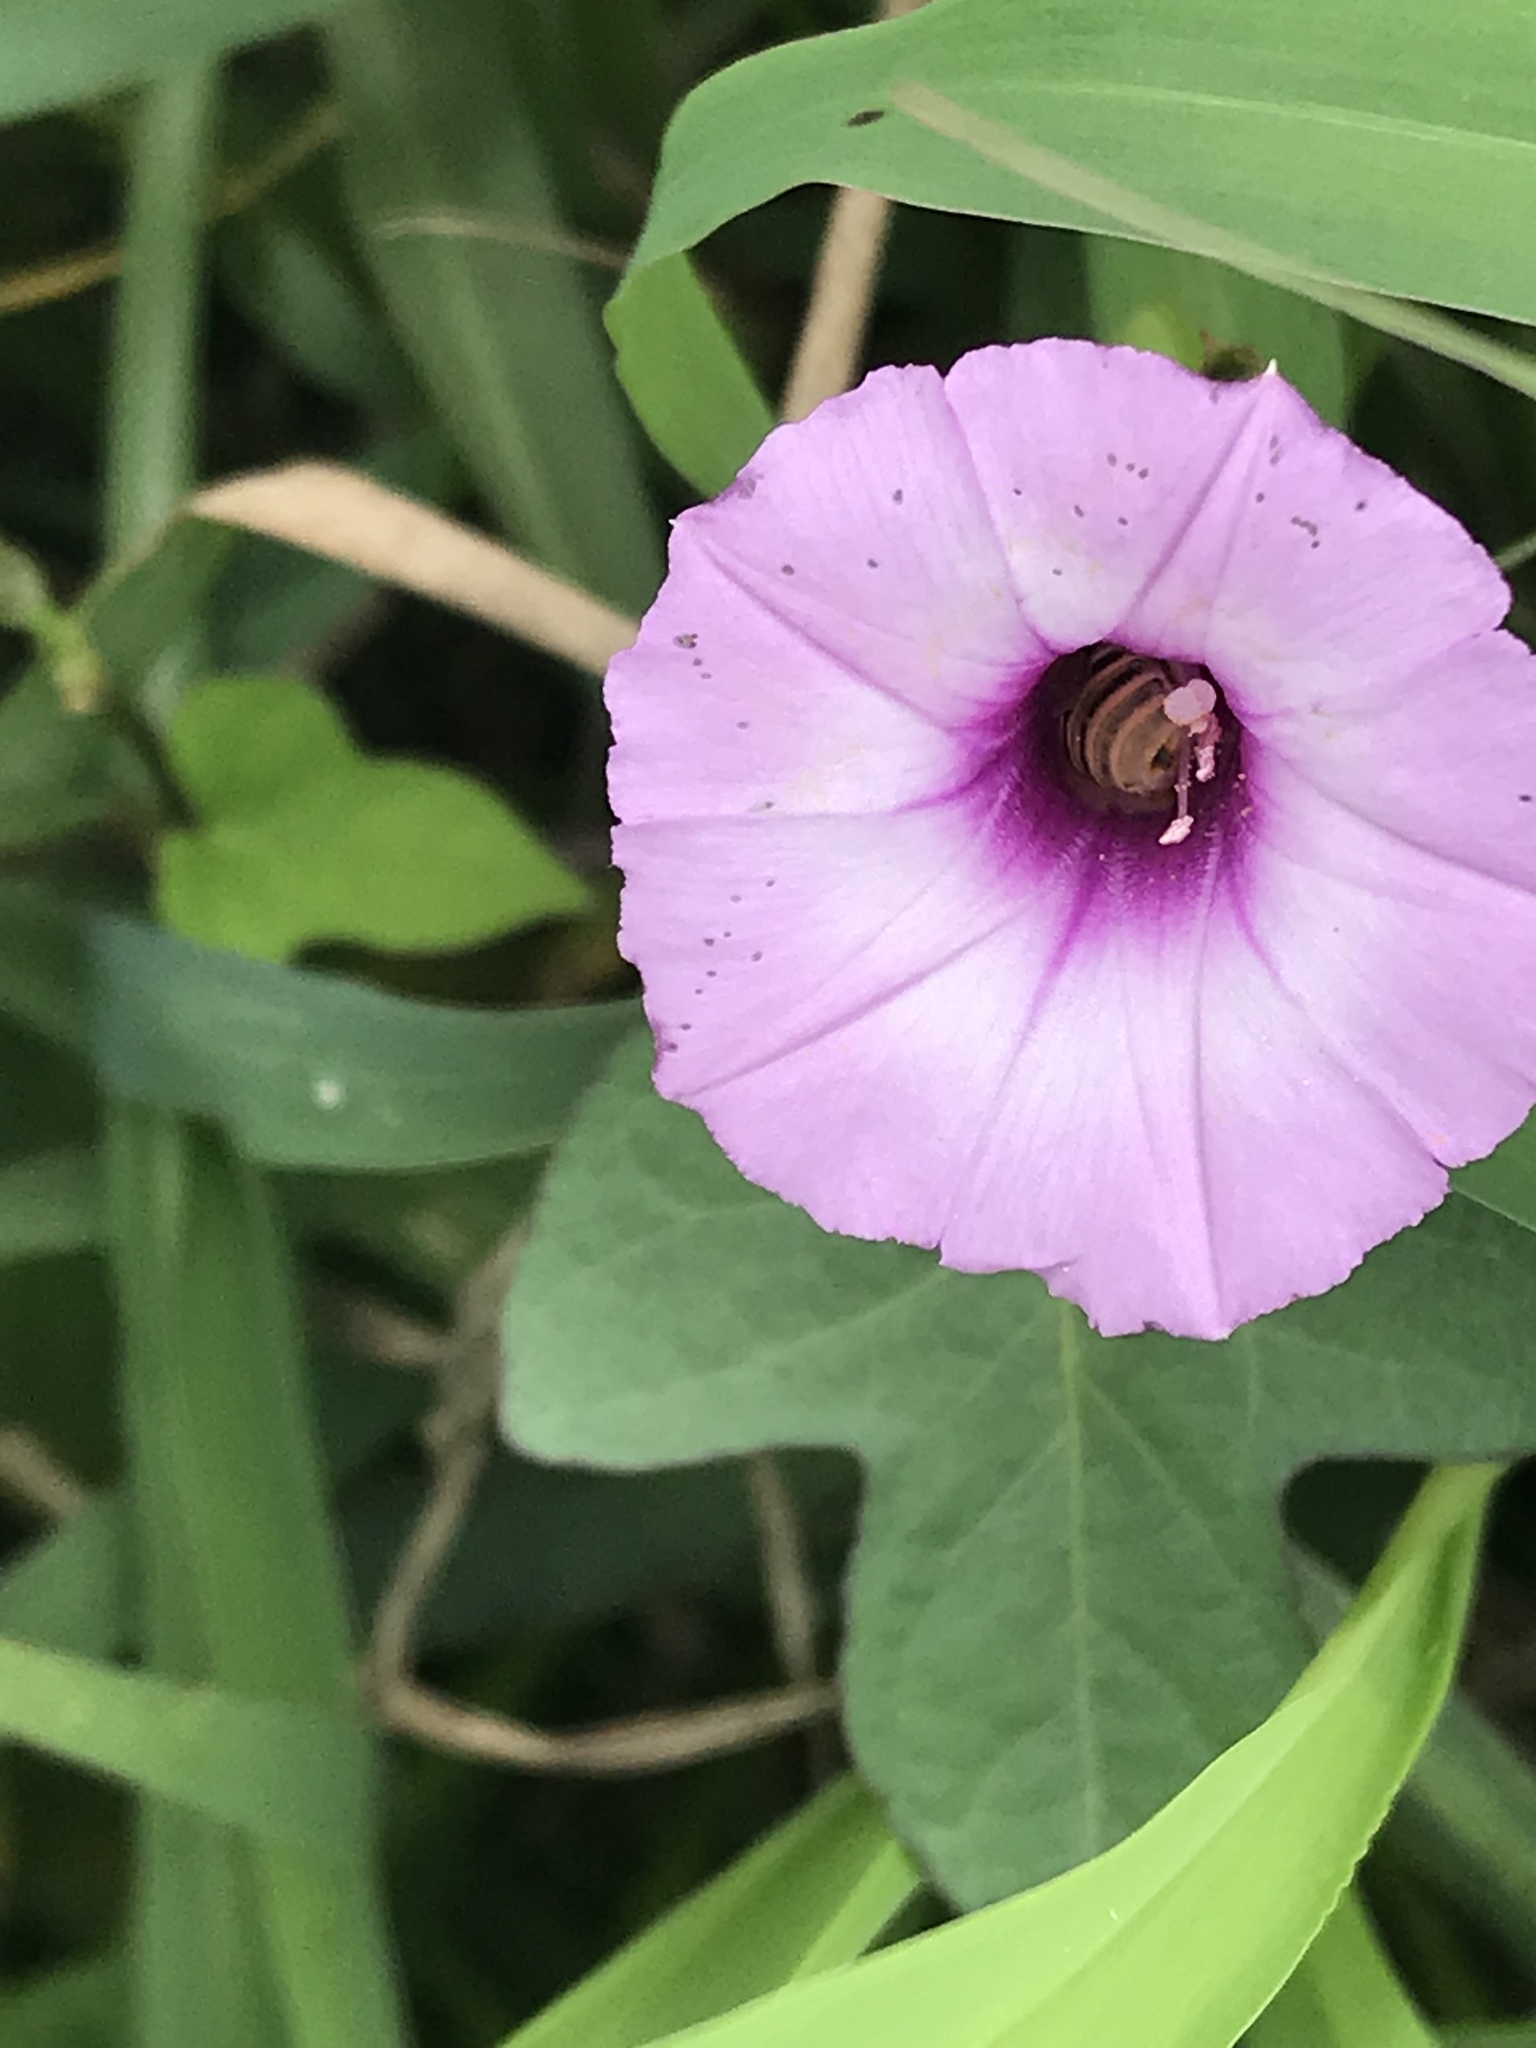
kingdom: Plantae
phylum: Tracheophyta
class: Magnoliopsida
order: Solanales
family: Convolvulaceae
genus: Ipomoea
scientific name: Ipomoea cordatotriloba
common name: Cotton morning glory
